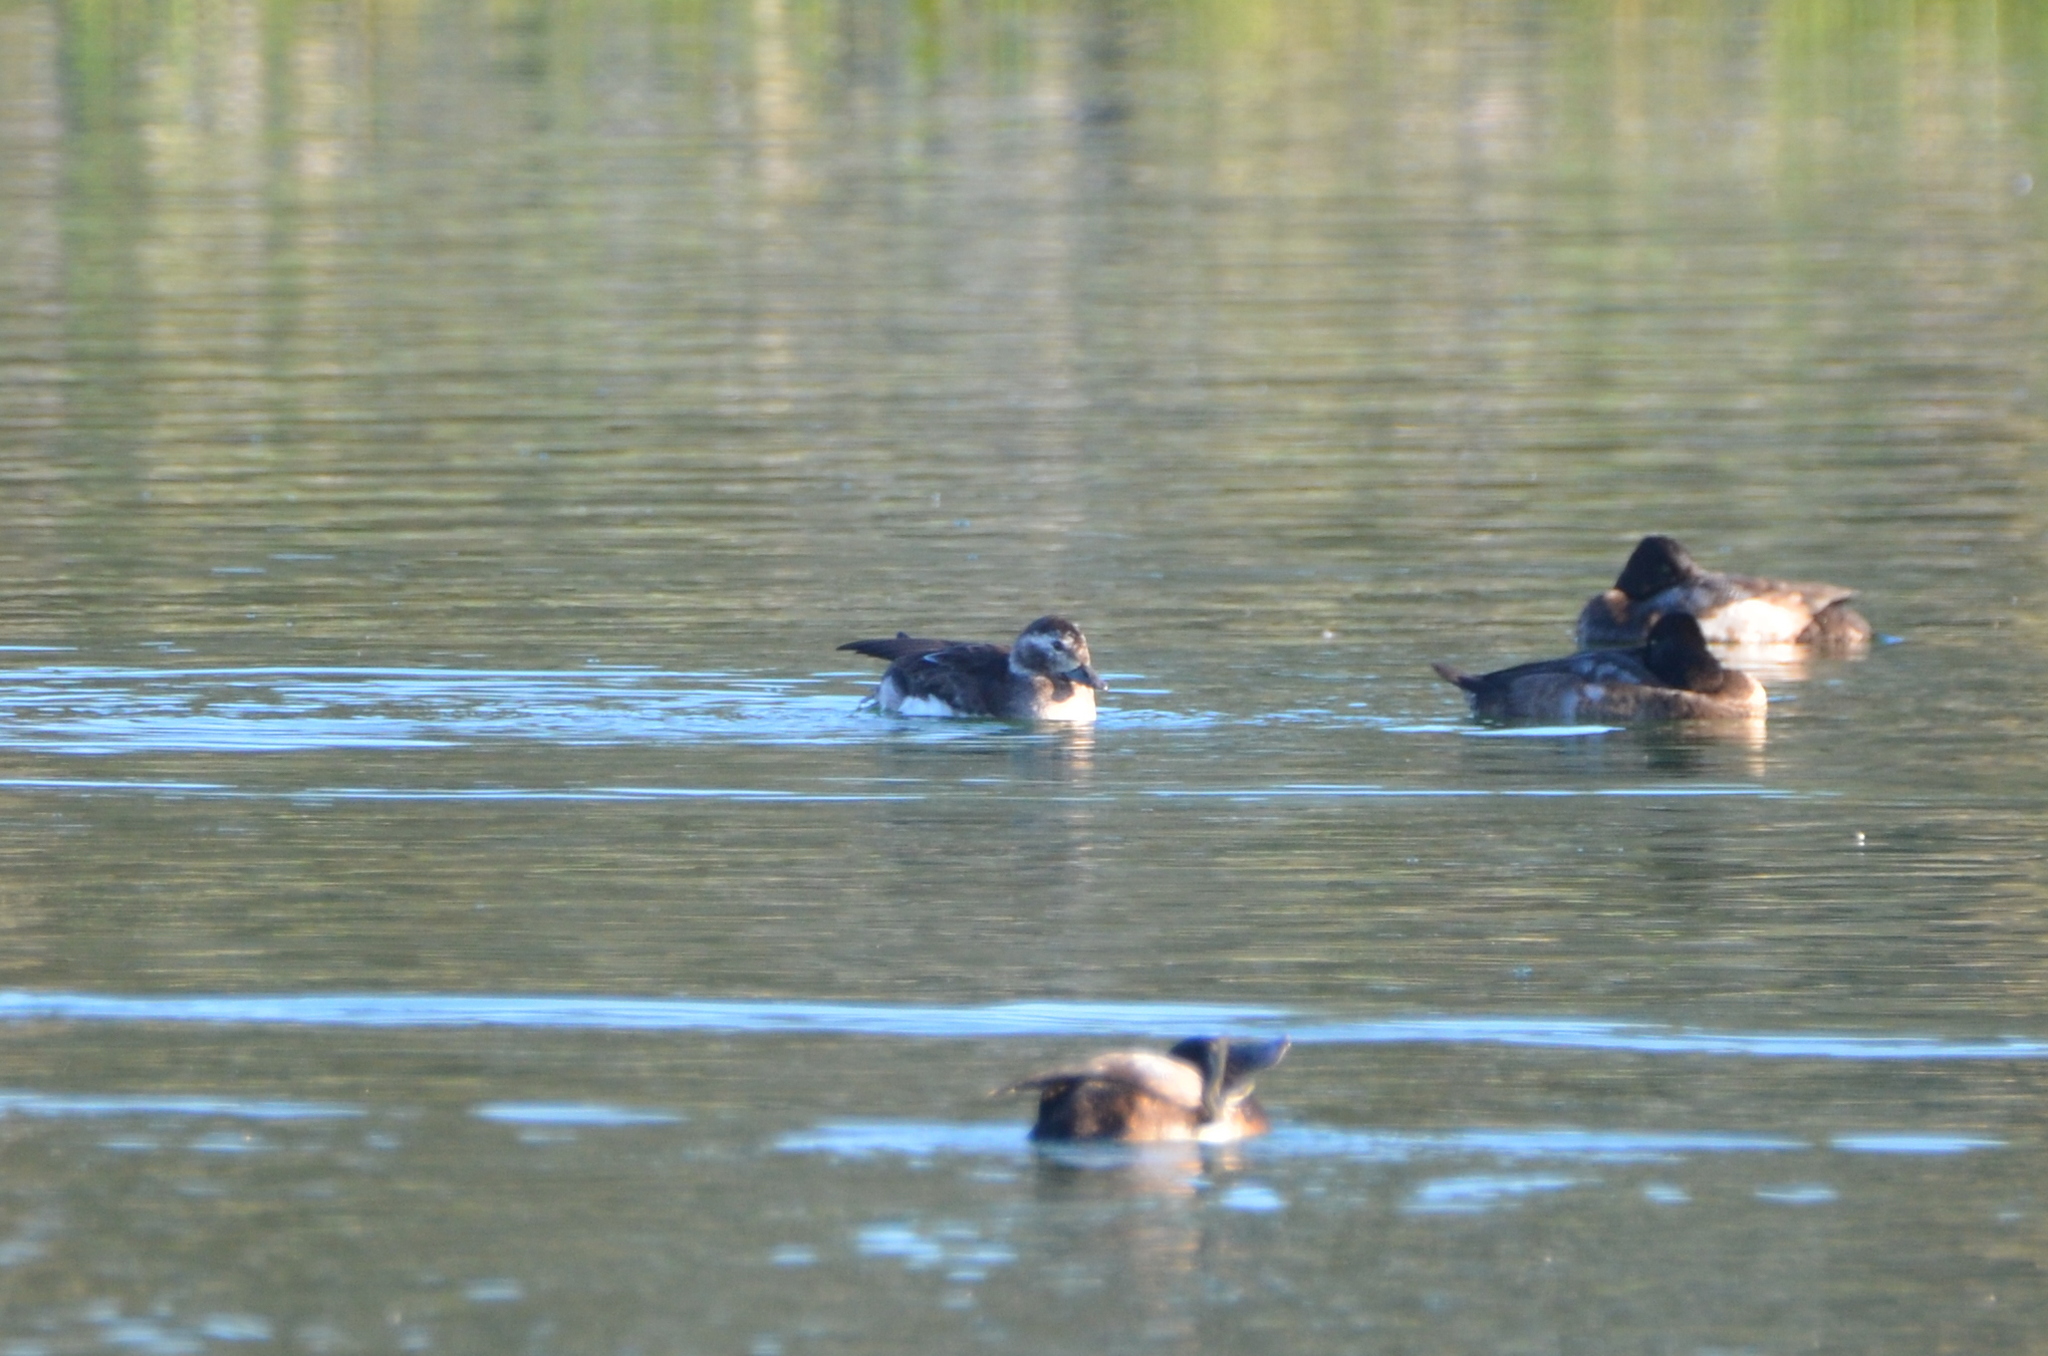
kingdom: Animalia
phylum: Chordata
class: Aves
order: Anseriformes
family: Anatidae
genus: Clangula
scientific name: Clangula hyemalis
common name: Long-tailed duck
